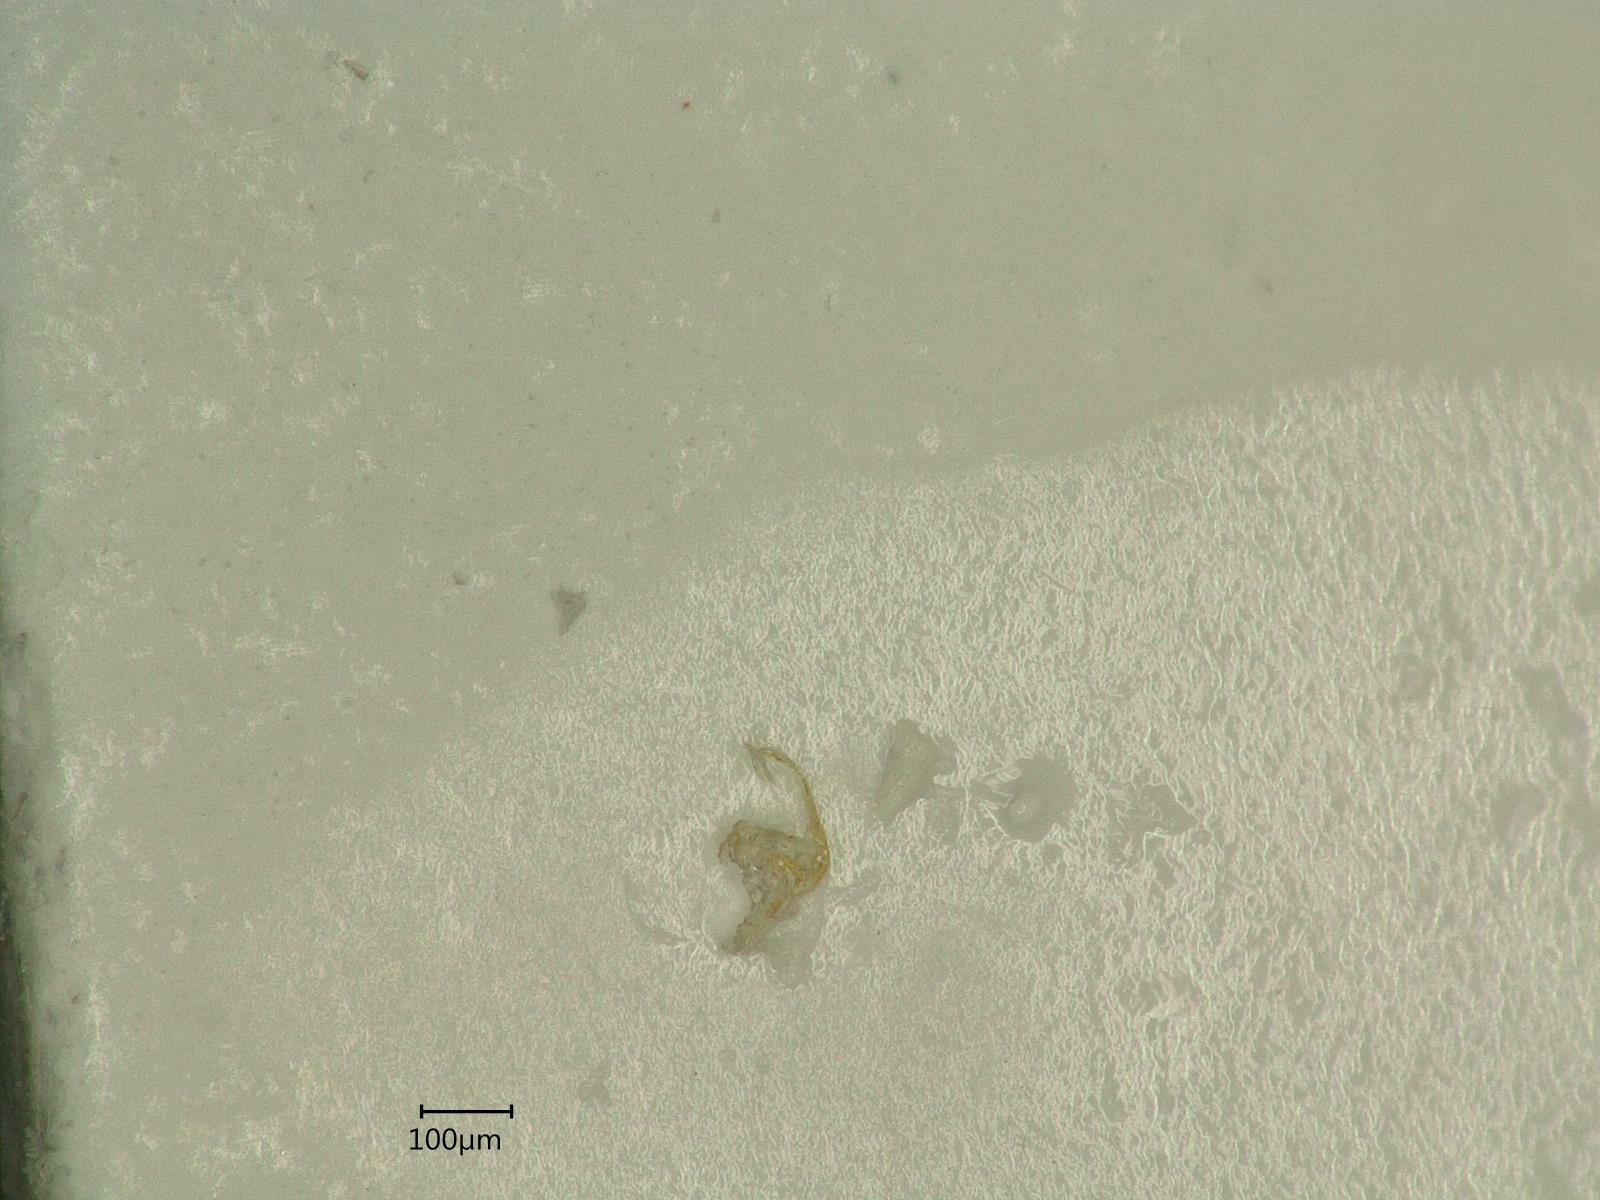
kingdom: Animalia
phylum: Arthropoda
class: Insecta
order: Hemiptera
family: Cicadellidae
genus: Eupteryx
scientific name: Eupteryx urticae
